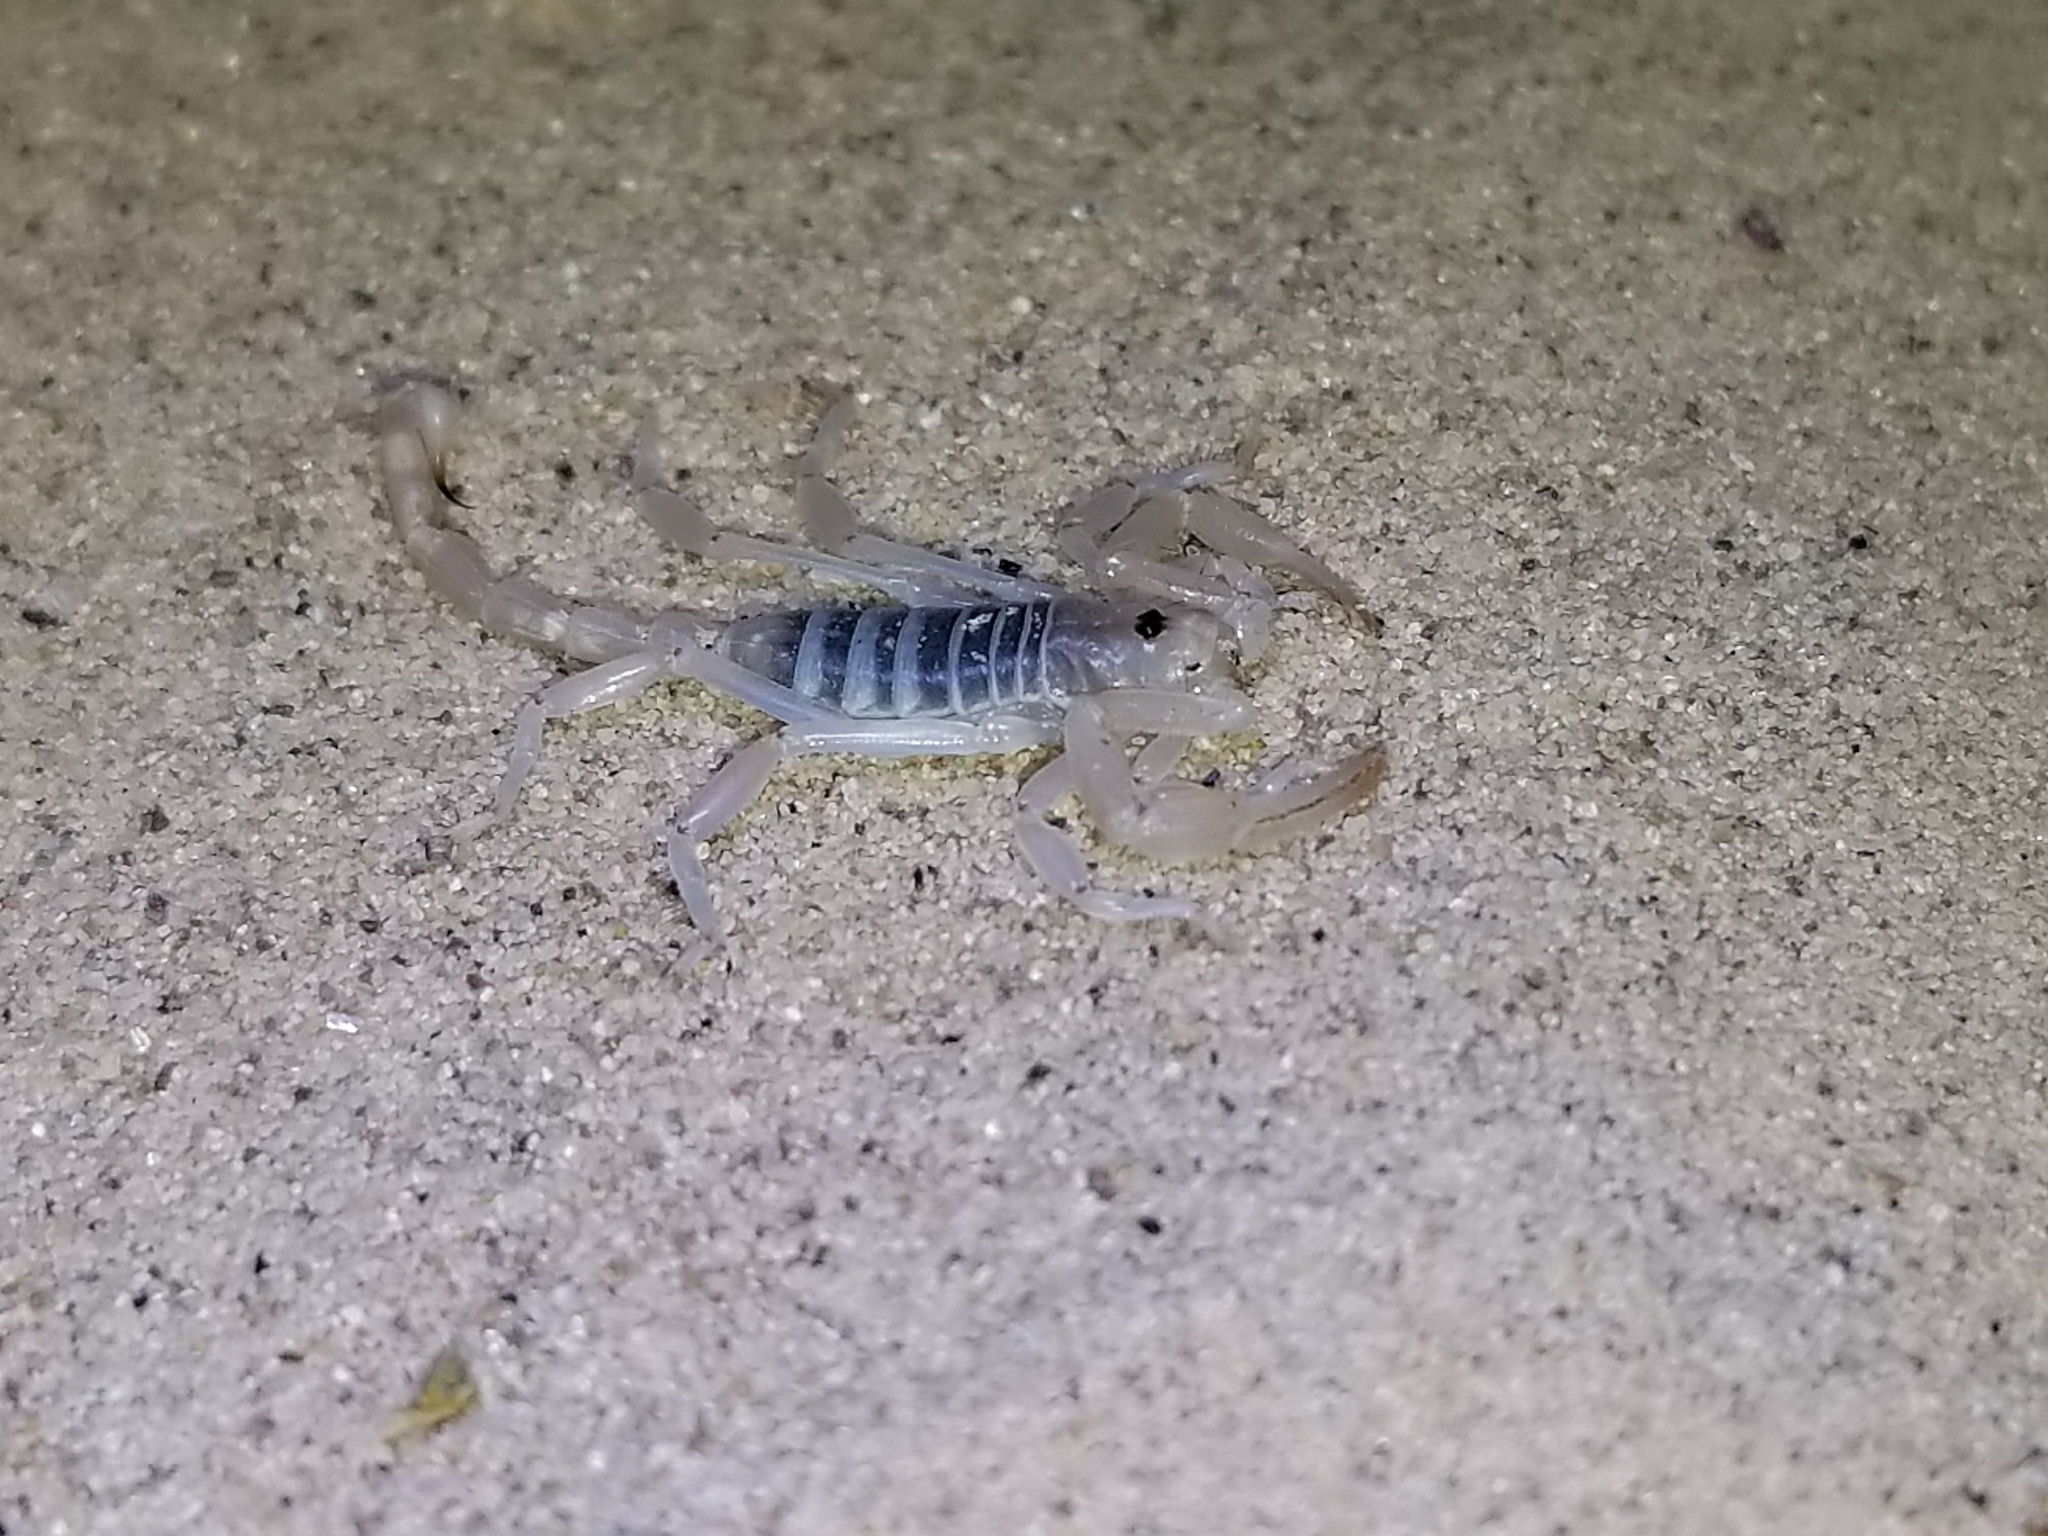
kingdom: Animalia
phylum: Arthropoda
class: Arachnida
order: Scorpiones
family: Vaejovidae
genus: Paruroctonus
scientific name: Paruroctonus xanthus
